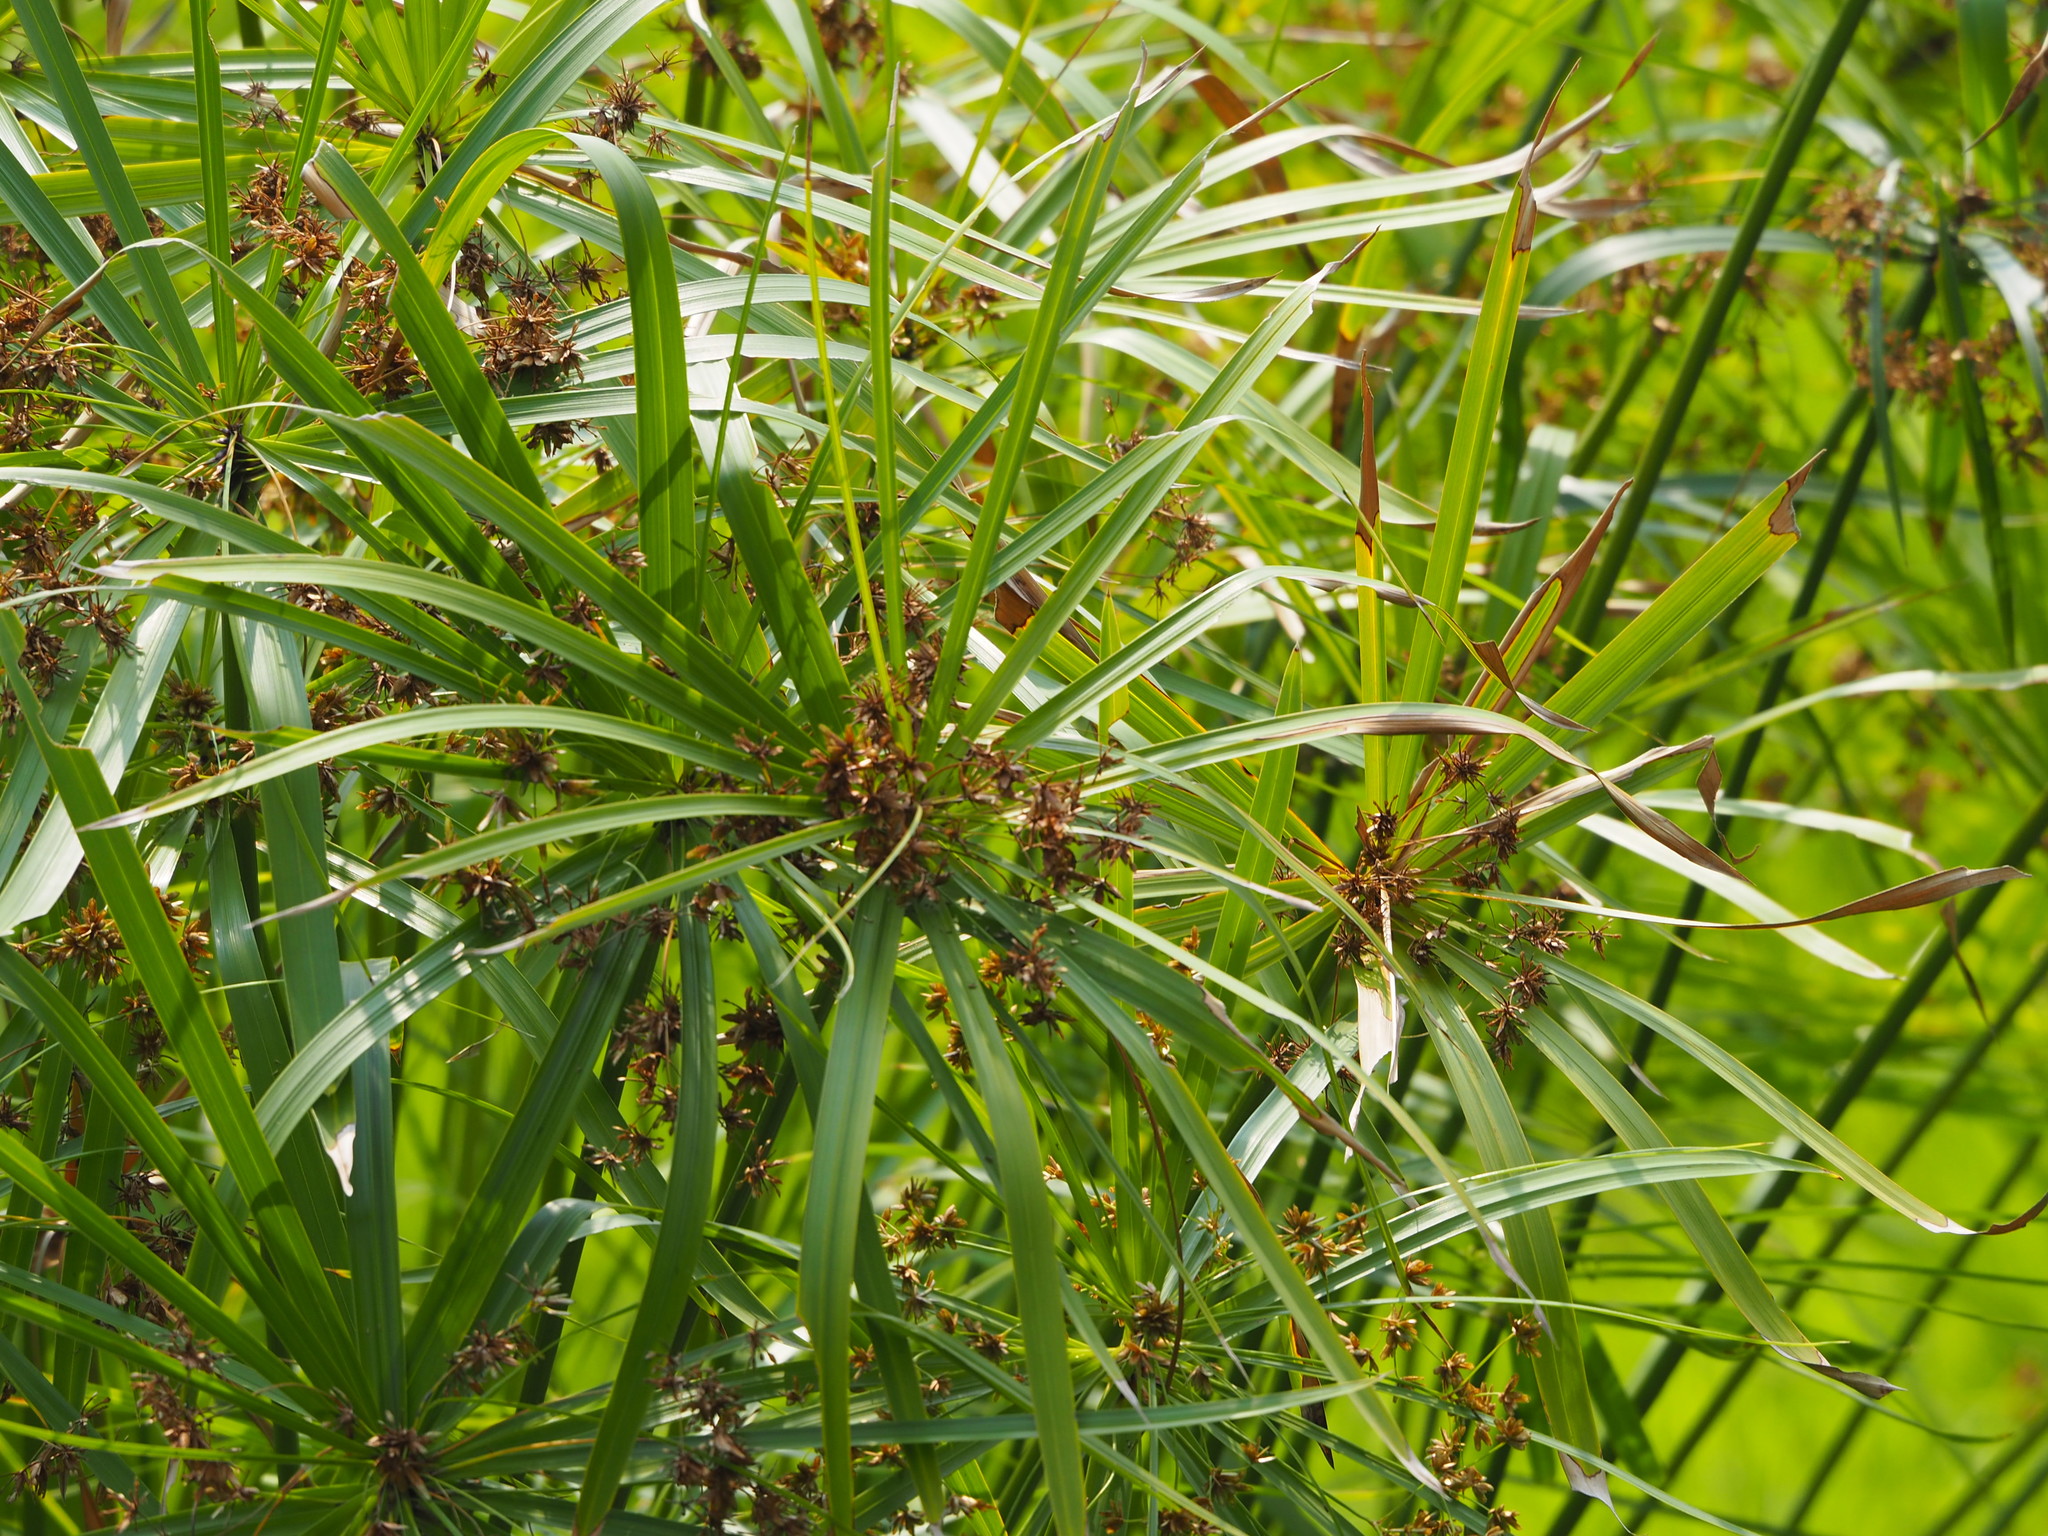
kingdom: Plantae
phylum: Tracheophyta
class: Liliopsida
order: Poales
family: Cyperaceae
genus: Cyperus
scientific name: Cyperus alternifolius
